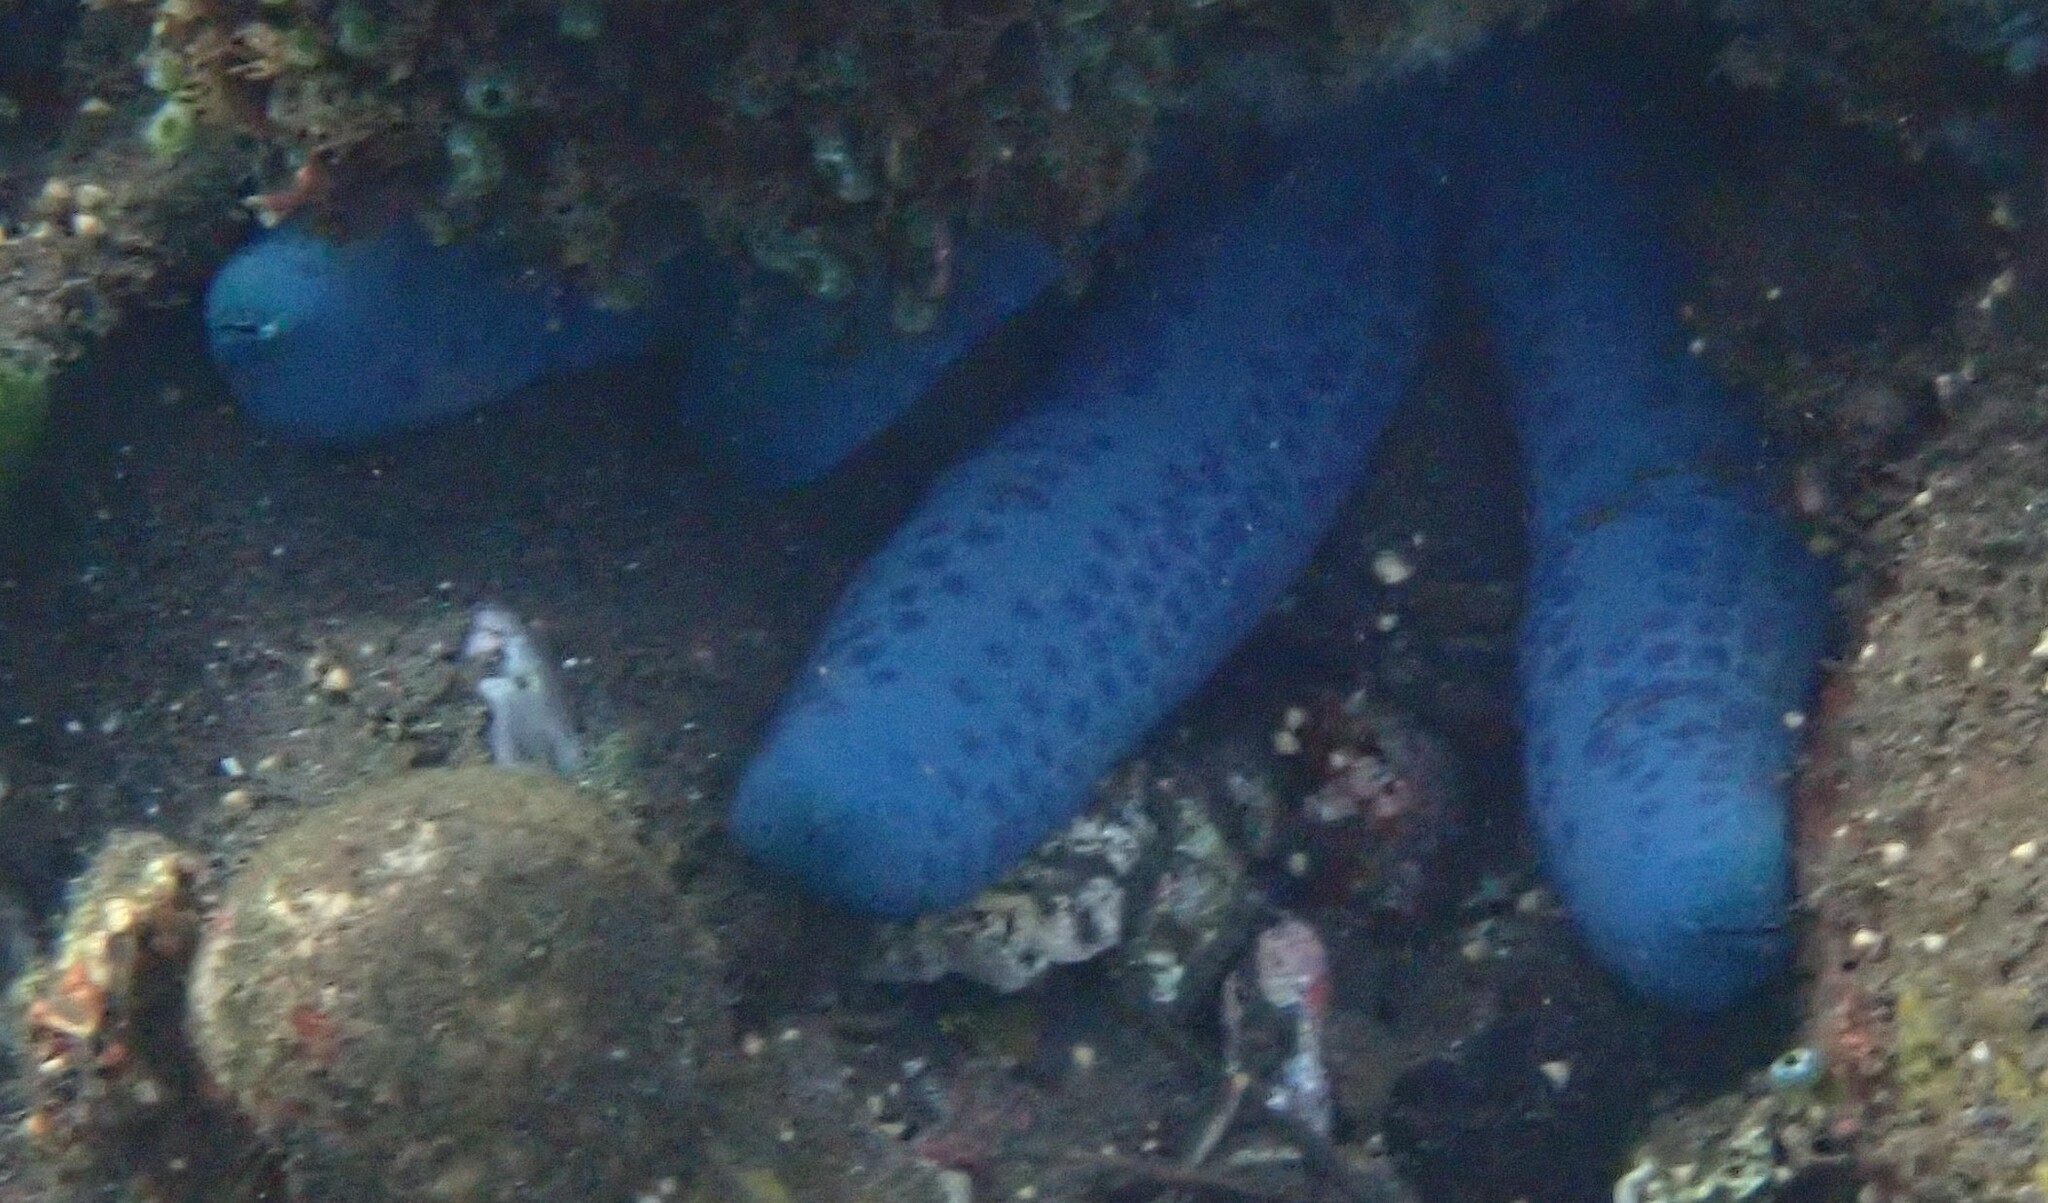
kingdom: Animalia
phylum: Echinodermata
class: Asteroidea
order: Valvatida
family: Ophidiasteridae
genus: Linckia
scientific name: Linckia laevigata
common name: Azure sea star
